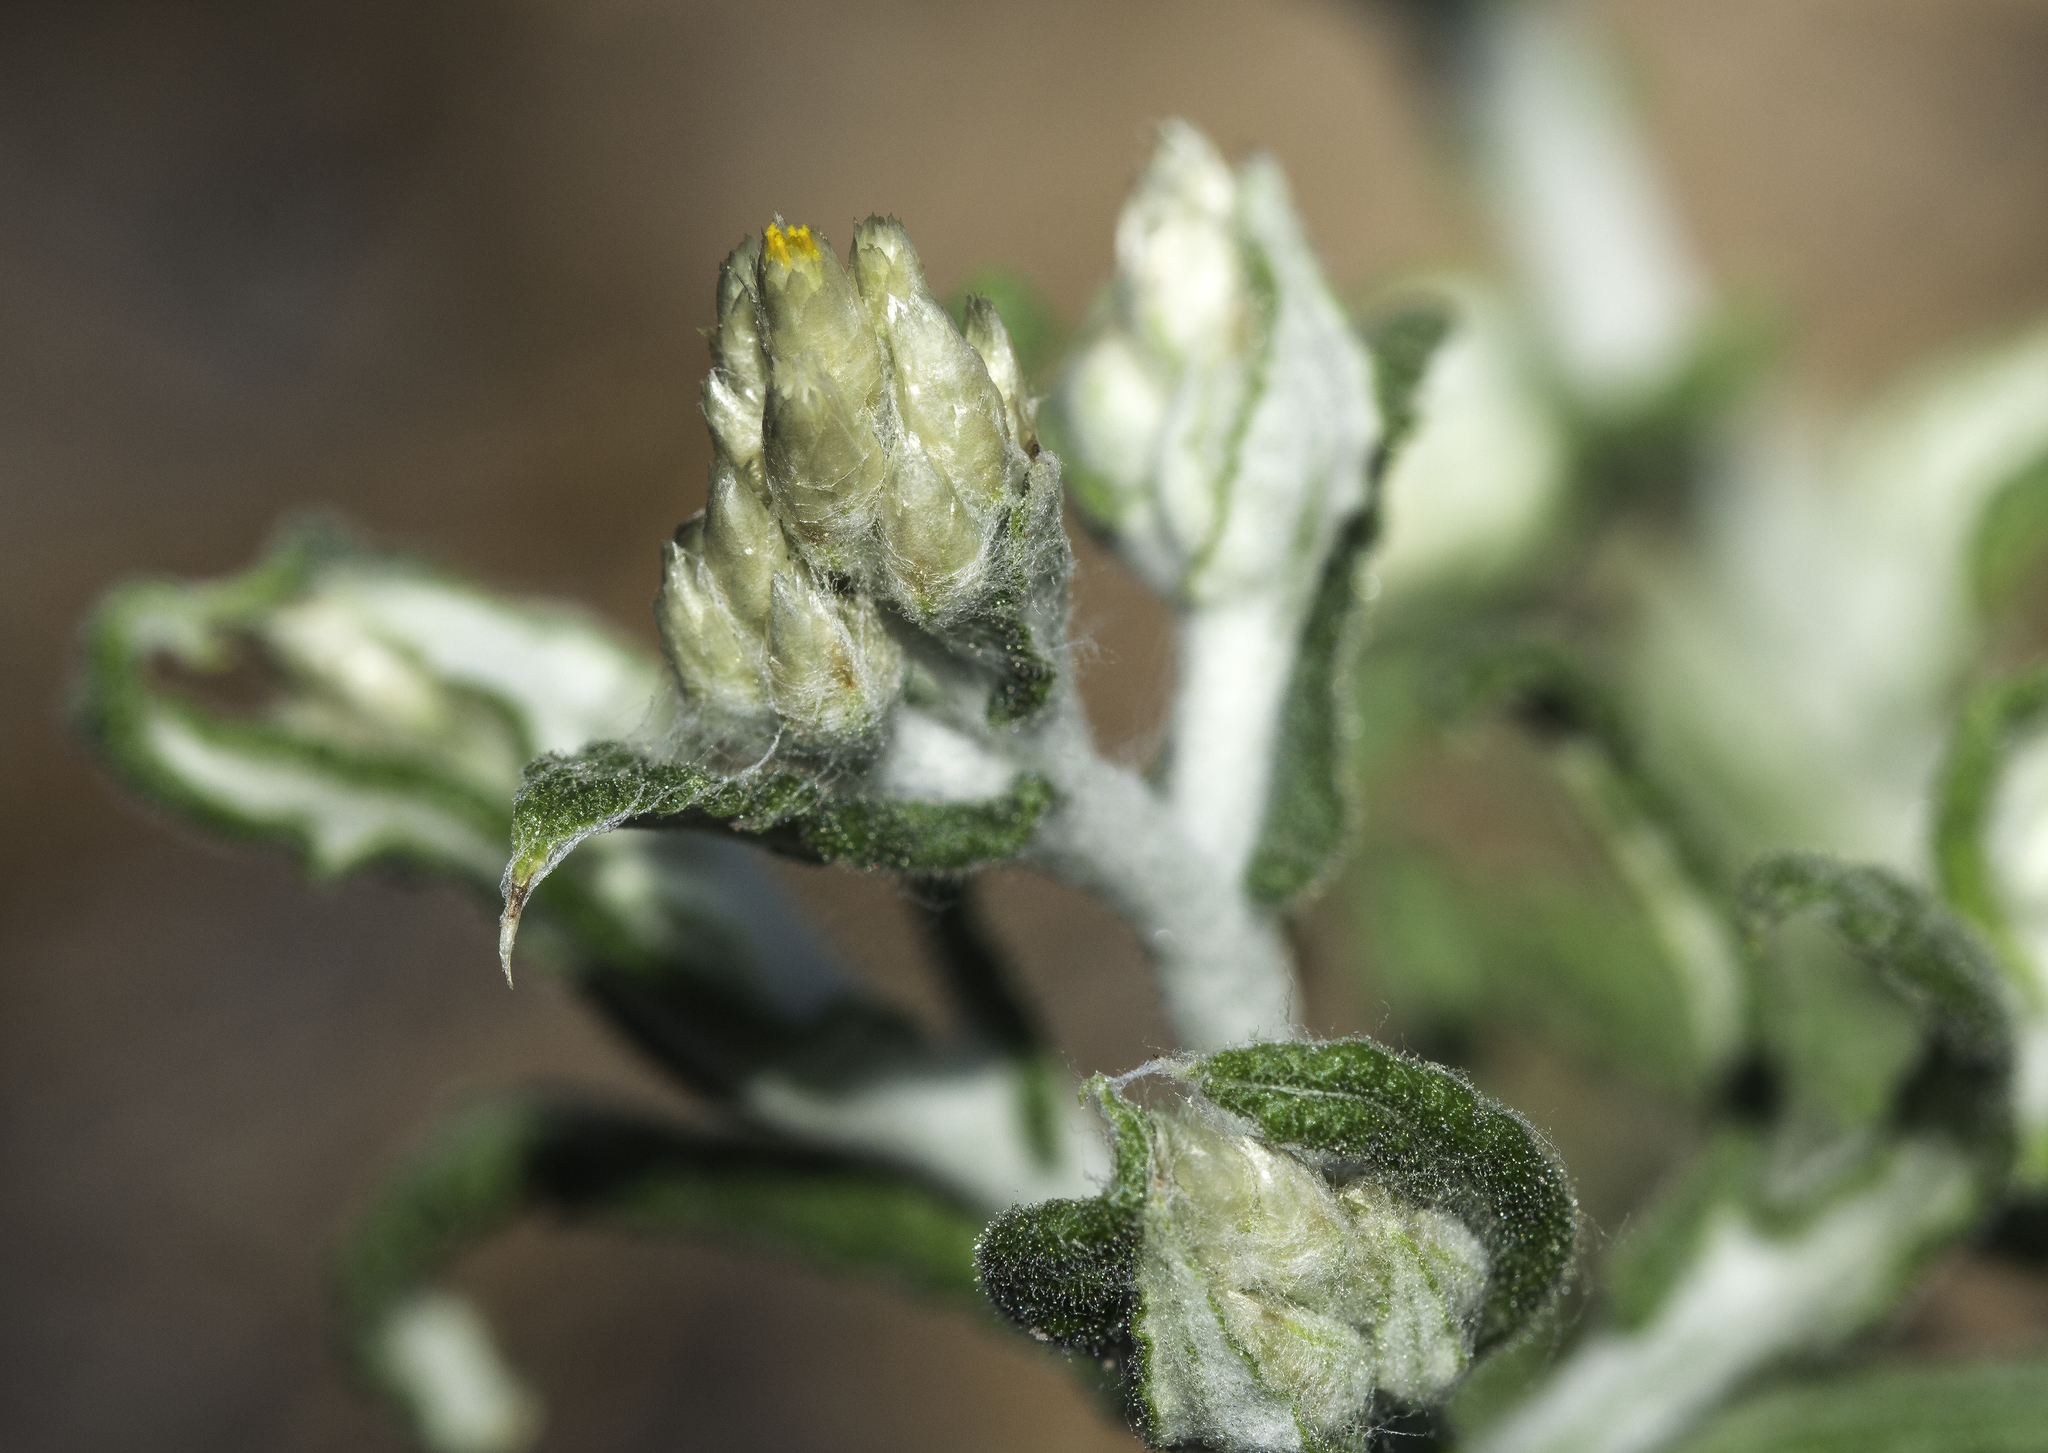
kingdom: Plantae
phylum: Tracheophyta
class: Magnoliopsida
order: Asterales
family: Asteraceae
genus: Pseudognaphalium
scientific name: Pseudognaphalium macounii
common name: Clammy cudweed
